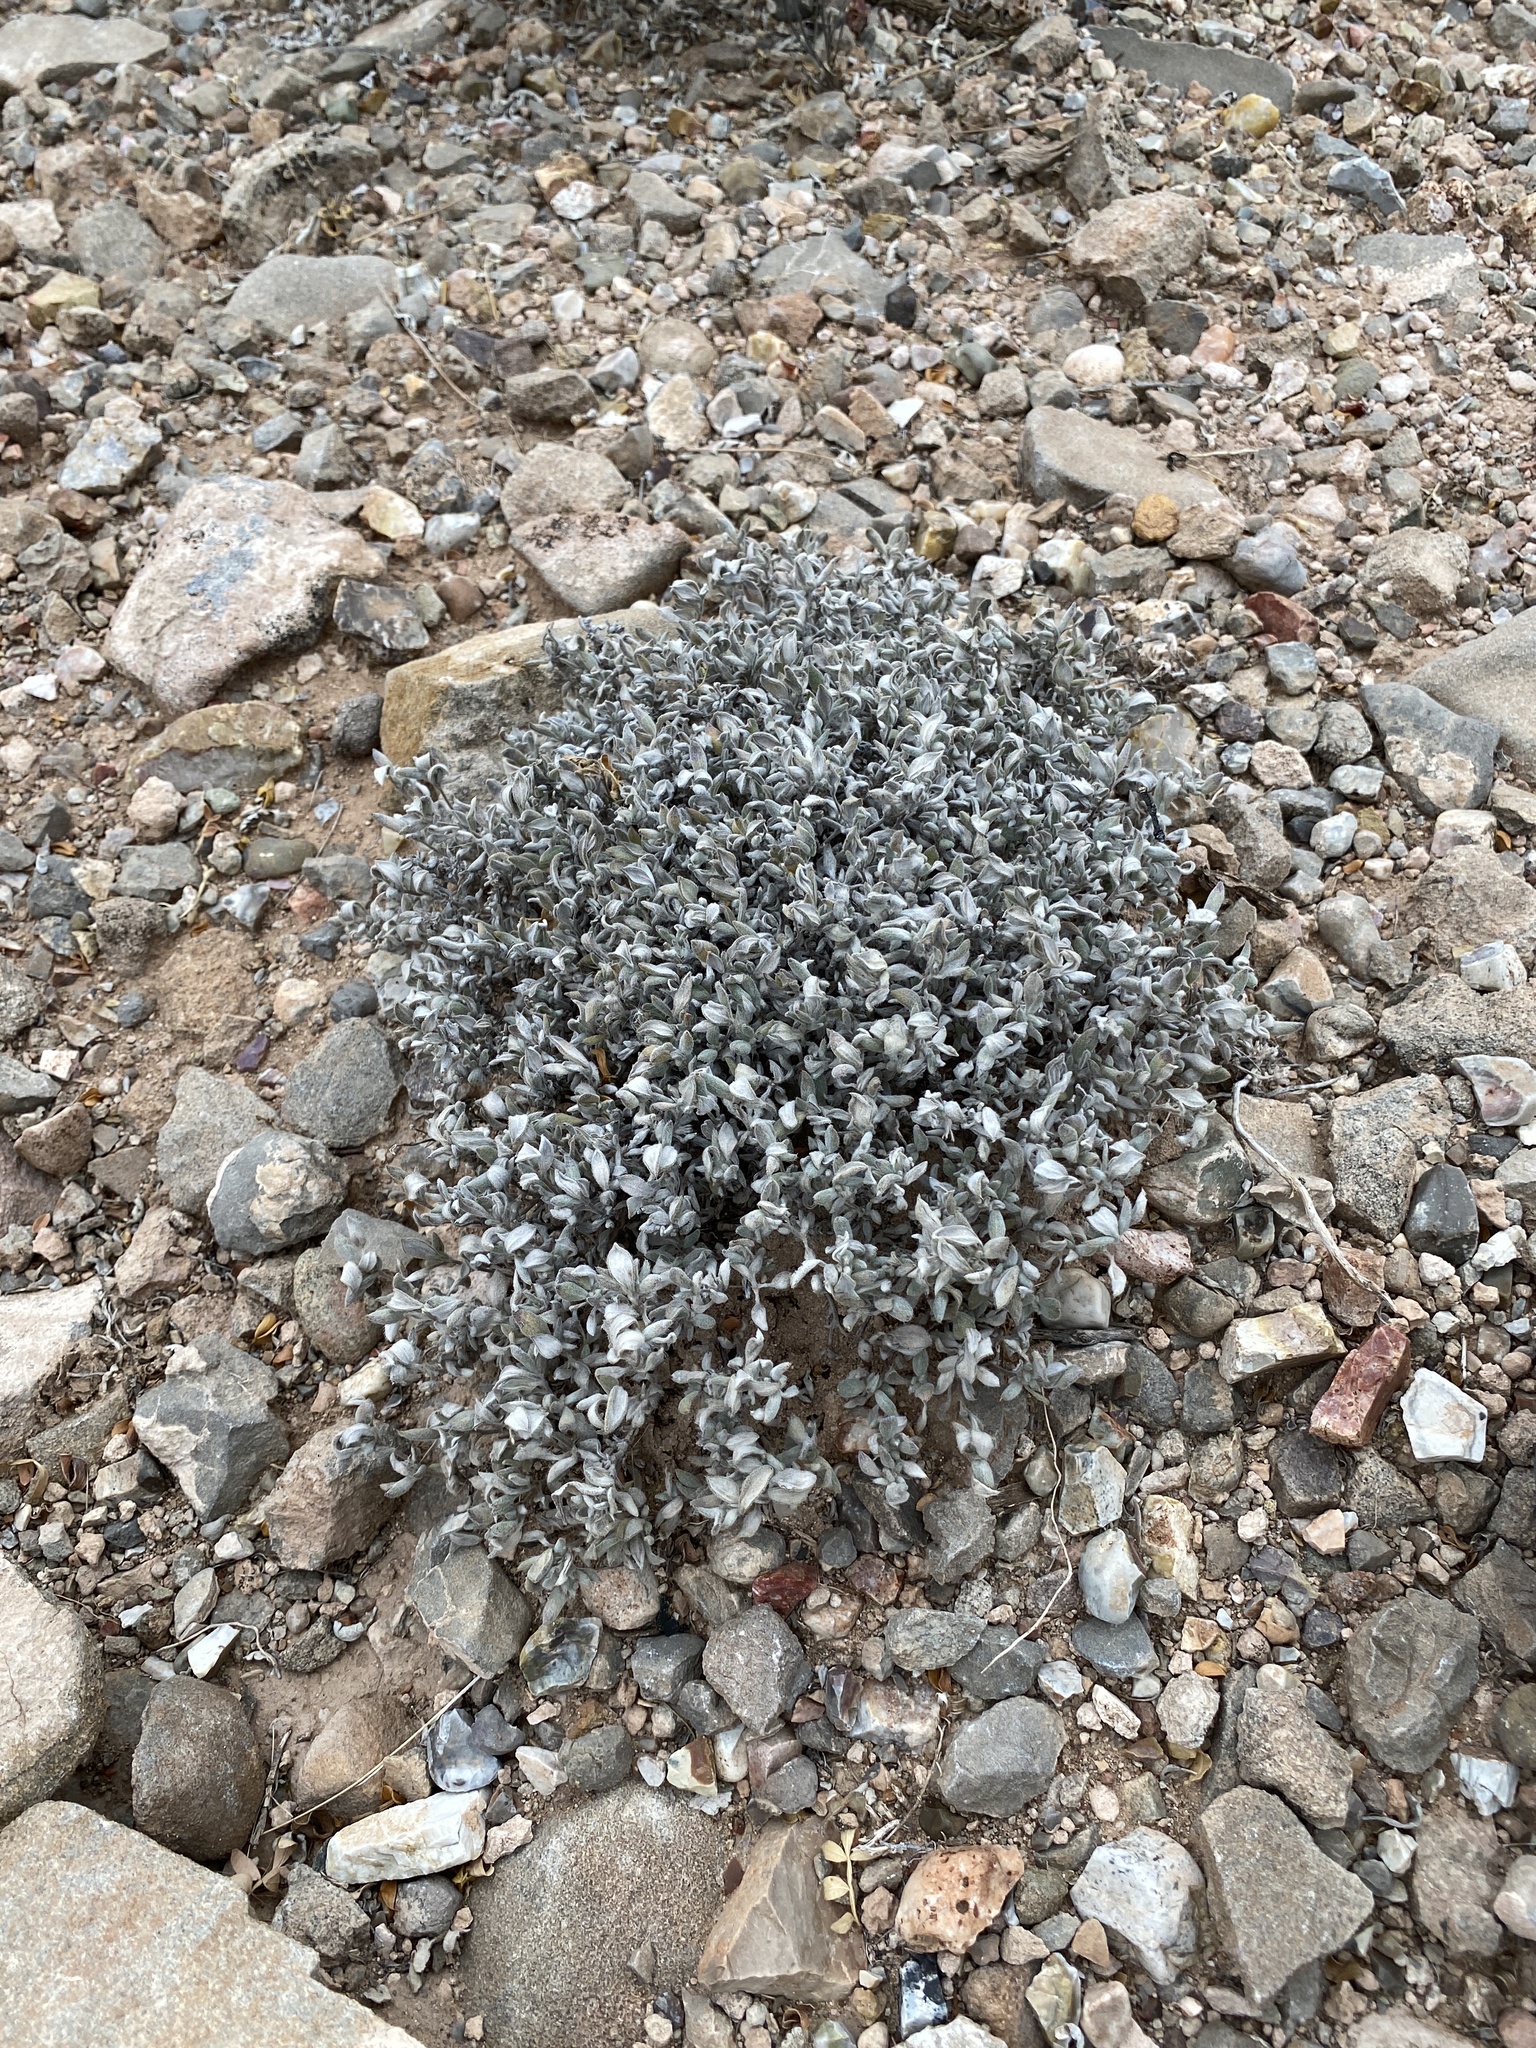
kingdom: Plantae
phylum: Tracheophyta
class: Magnoliopsida
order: Boraginales
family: Ehretiaceae
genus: Tiquilia
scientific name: Tiquilia canescens
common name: Hairy tiquilia
